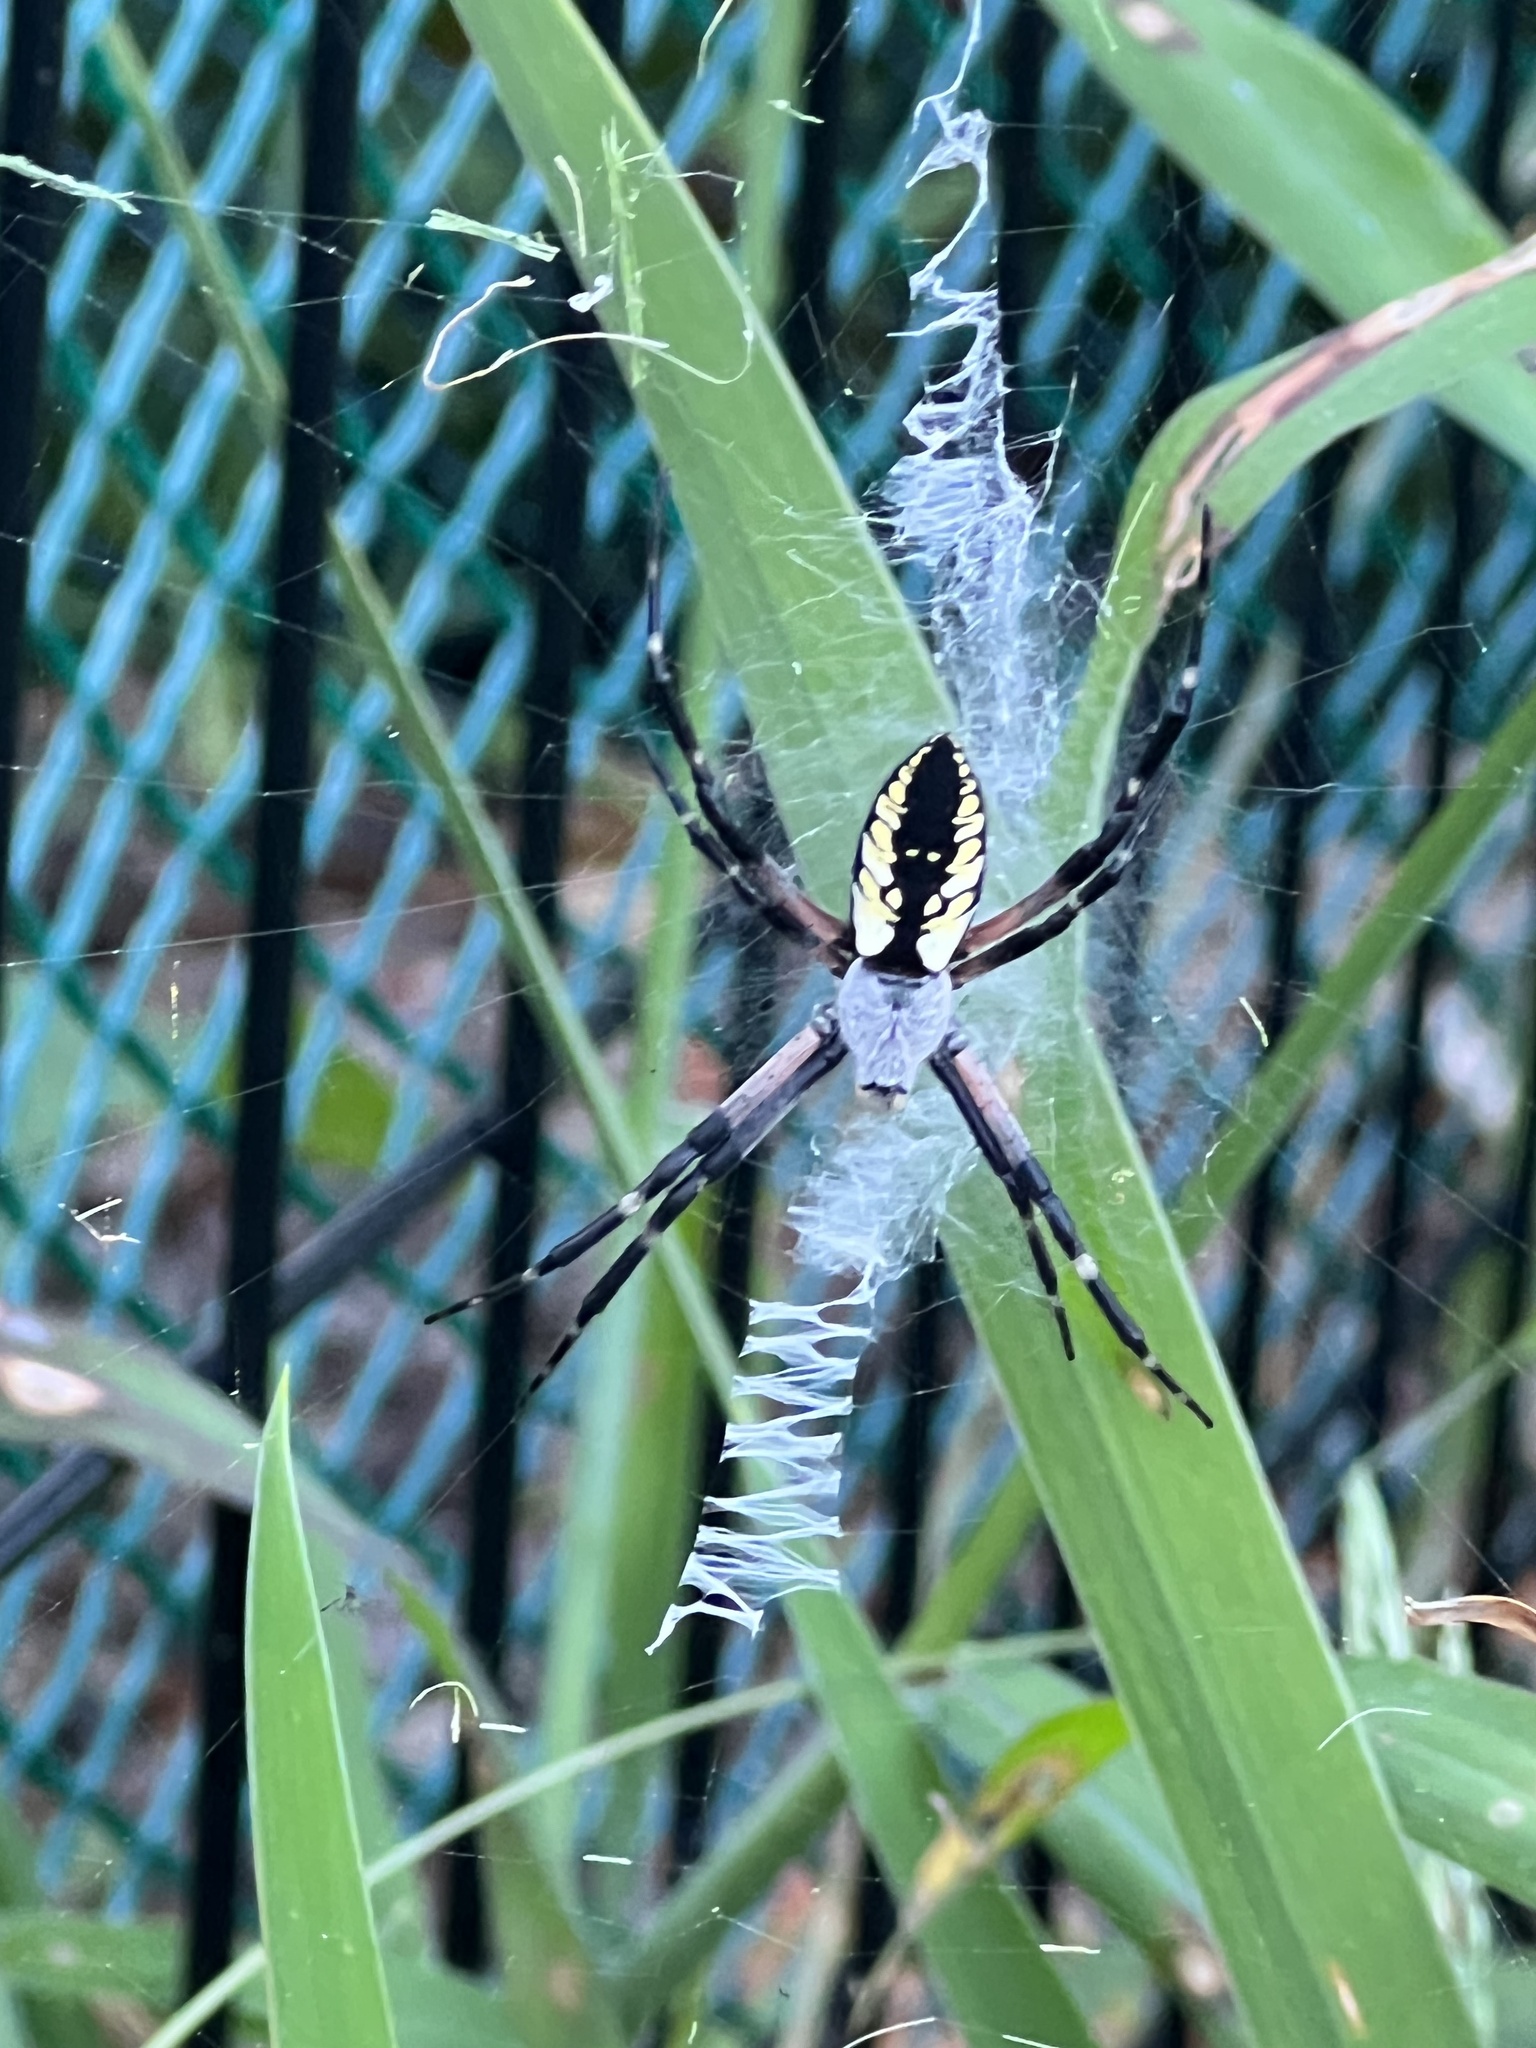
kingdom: Animalia
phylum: Arthropoda
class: Arachnida
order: Araneae
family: Araneidae
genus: Argiope
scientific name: Argiope aurantia
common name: Orb weavers
